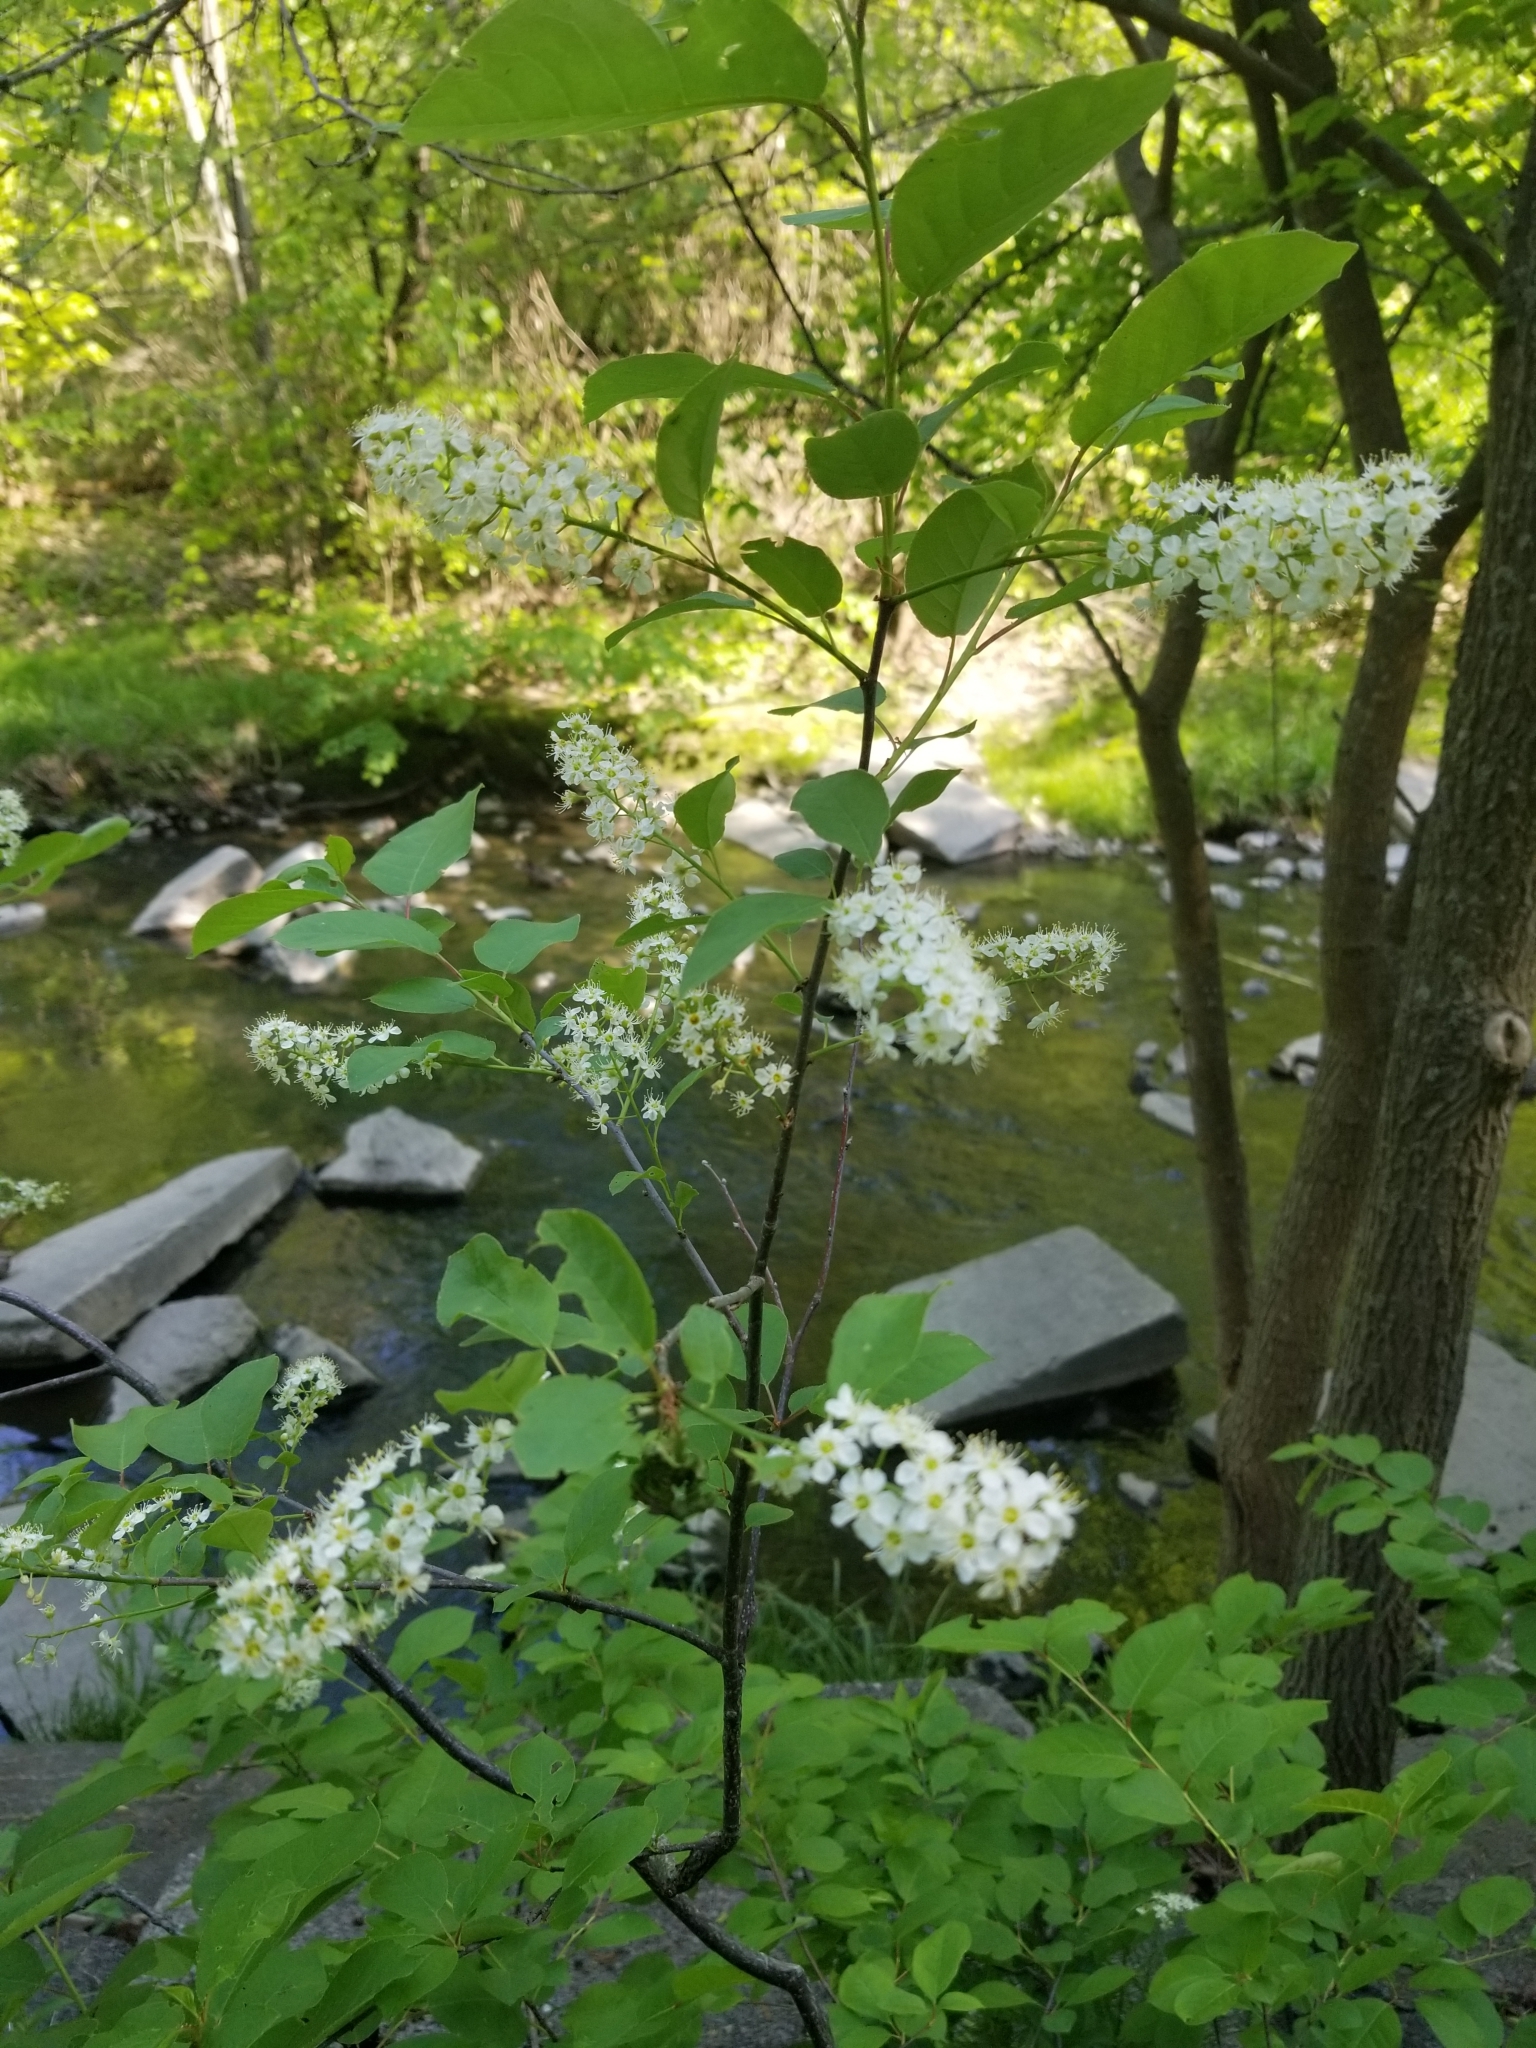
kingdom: Plantae
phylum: Tracheophyta
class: Magnoliopsida
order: Rosales
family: Rosaceae
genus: Prunus
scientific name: Prunus virginiana
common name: Chokecherry
